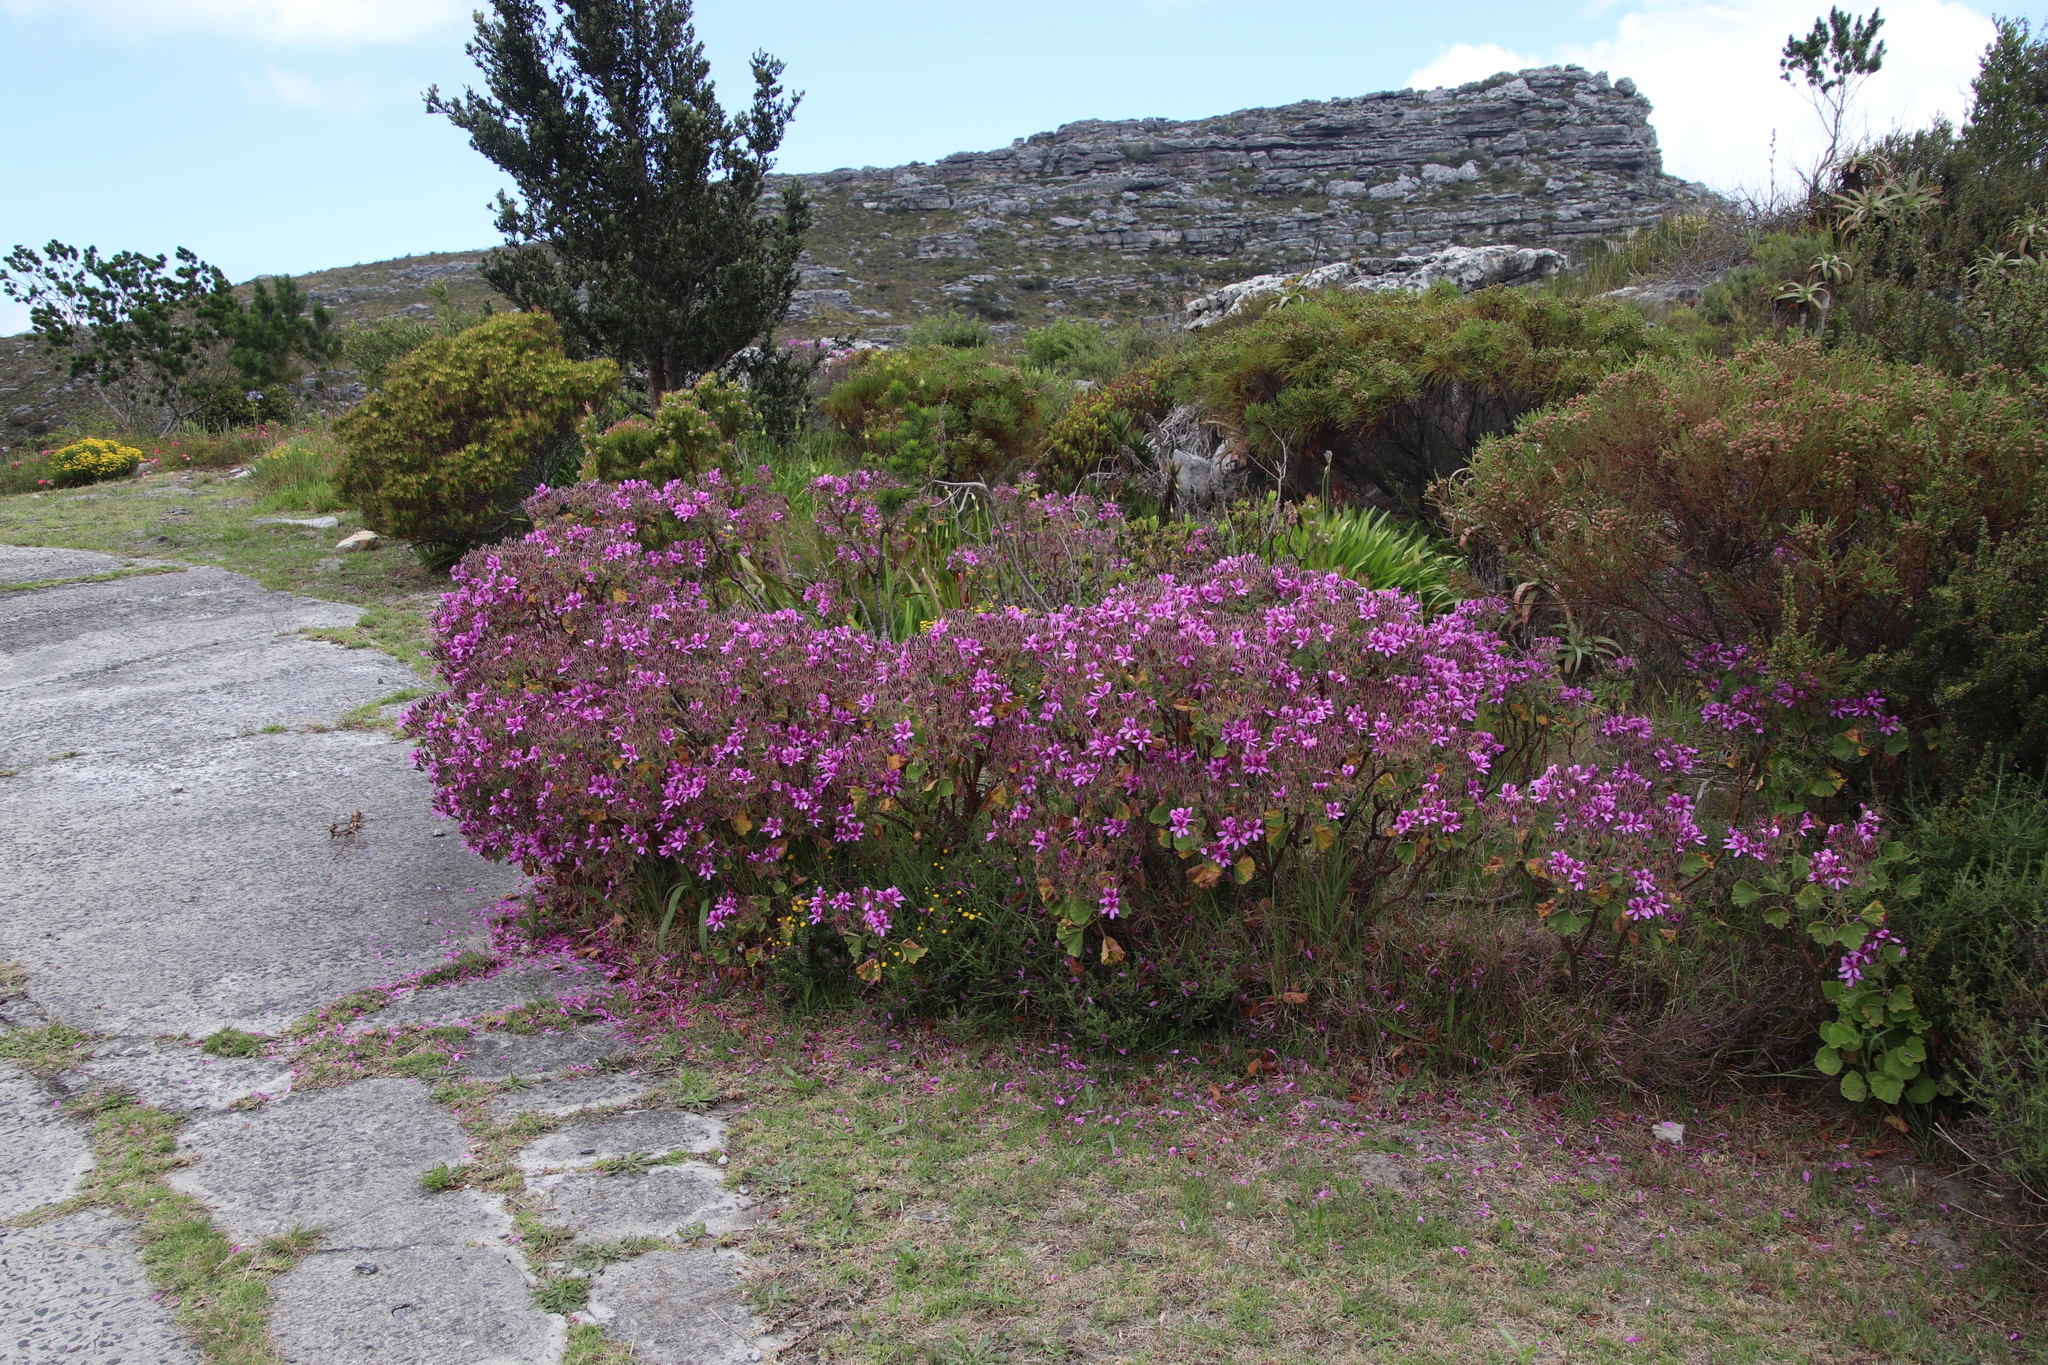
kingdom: Plantae
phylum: Tracheophyta
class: Magnoliopsida
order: Geraniales
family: Geraniaceae
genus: Pelargonium
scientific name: Pelargonium cucullatum
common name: Tree pelargonium
